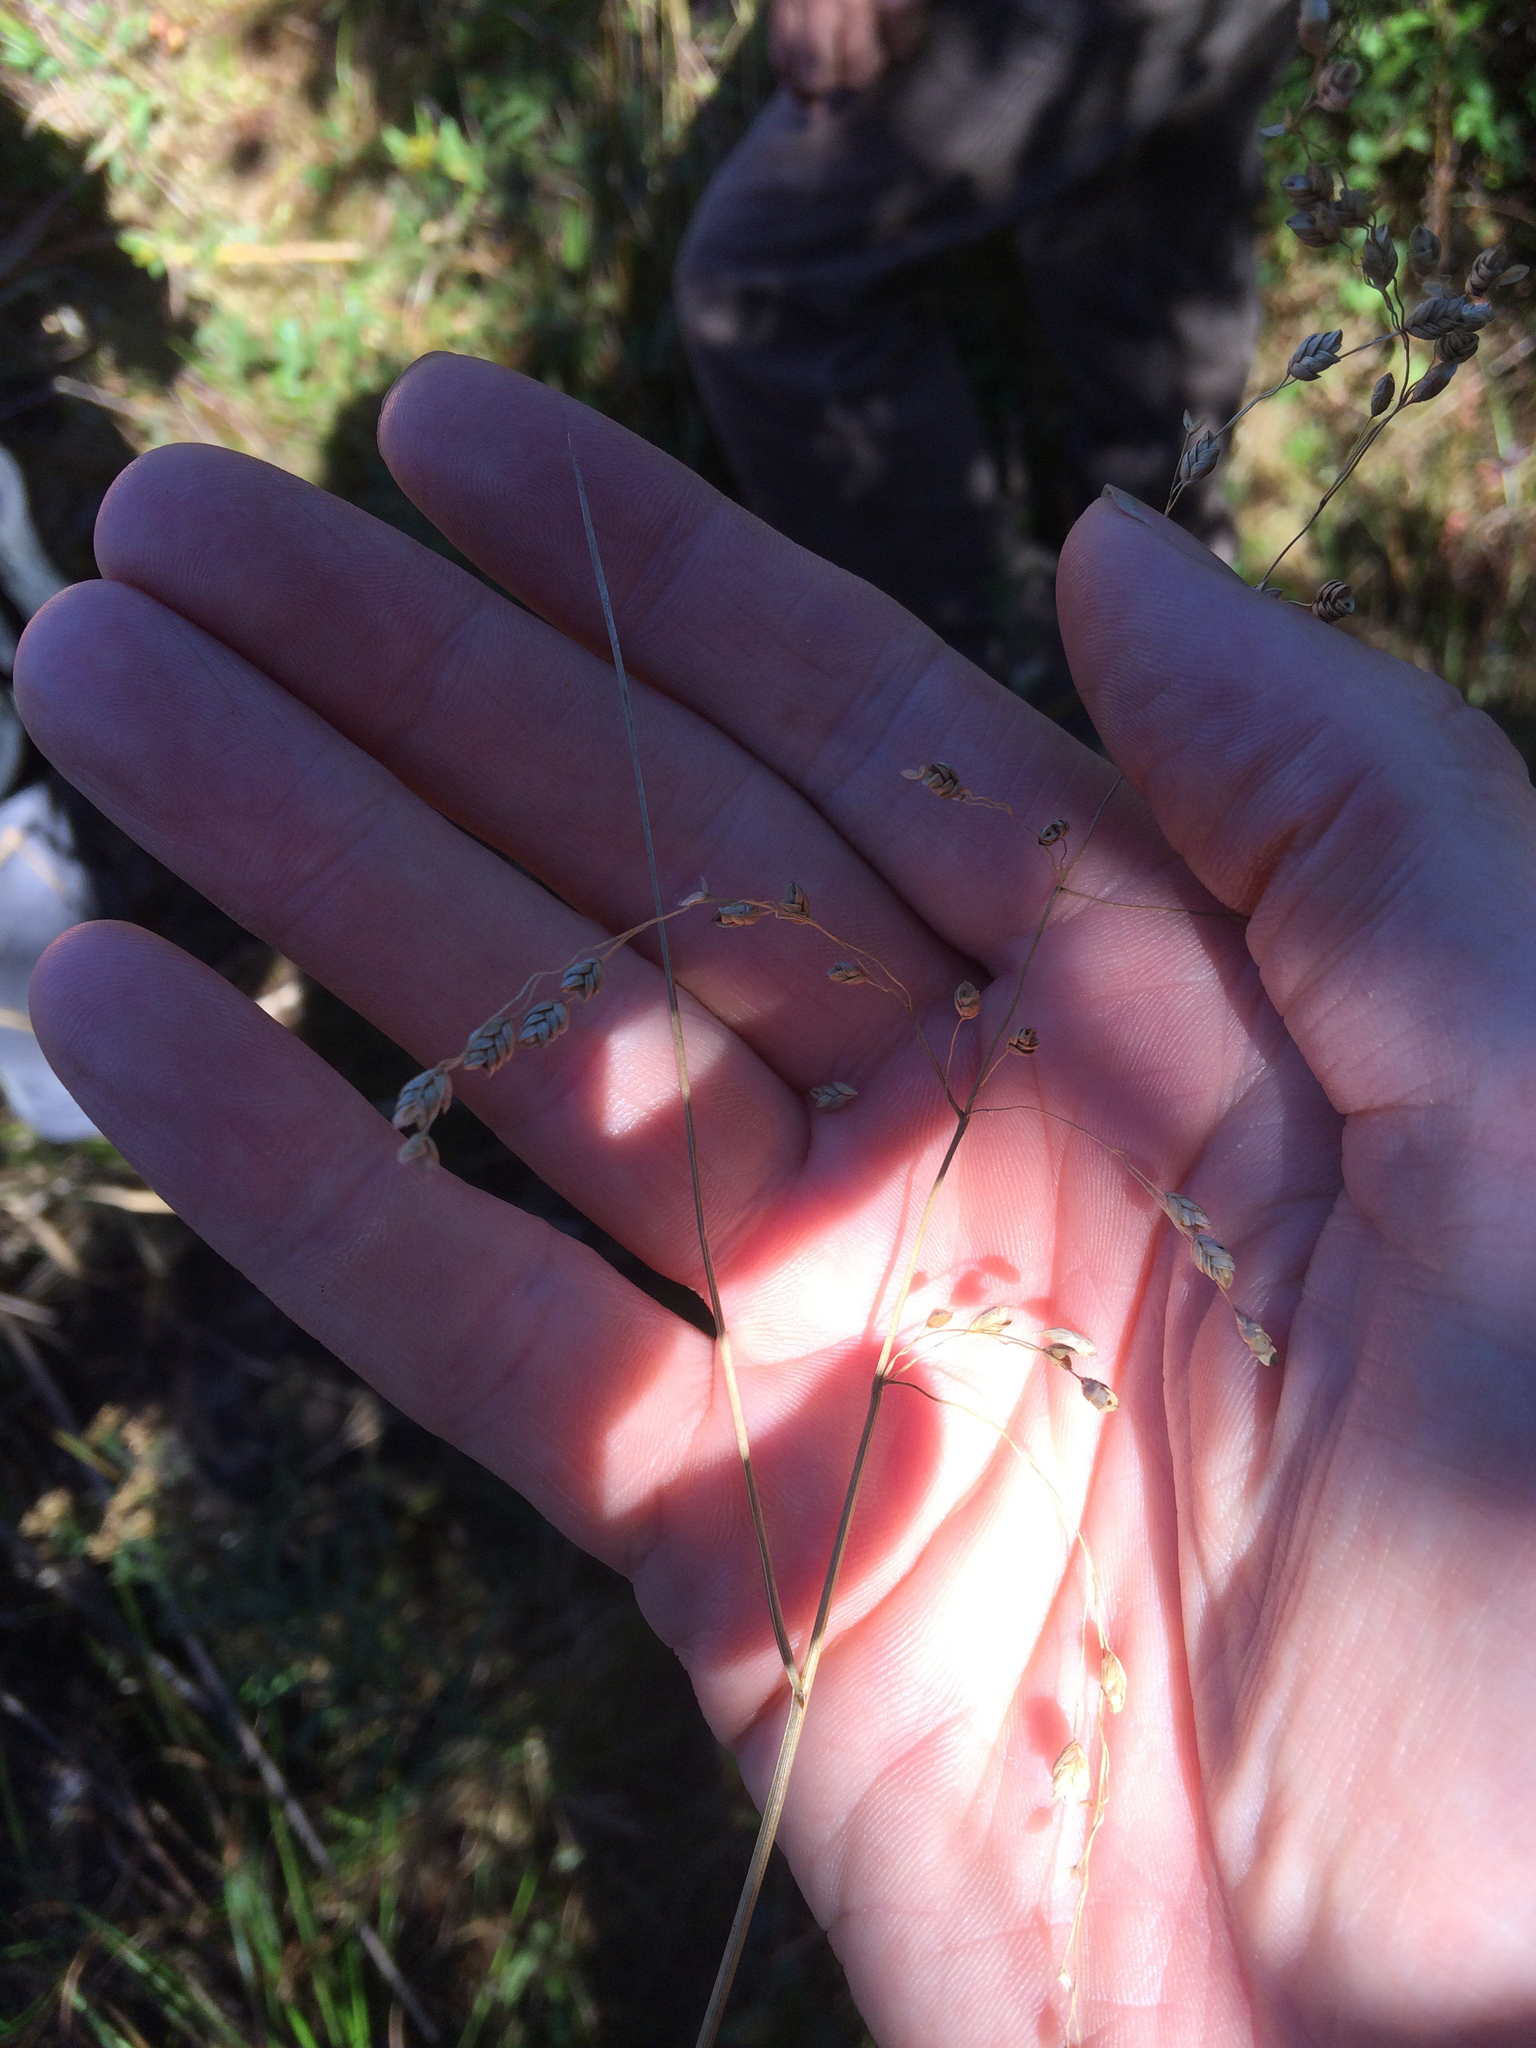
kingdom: Plantae
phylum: Tracheophyta
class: Liliopsida
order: Poales
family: Poaceae
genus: Glyceria
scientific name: Glyceria canadensis
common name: Canada mannagrass
